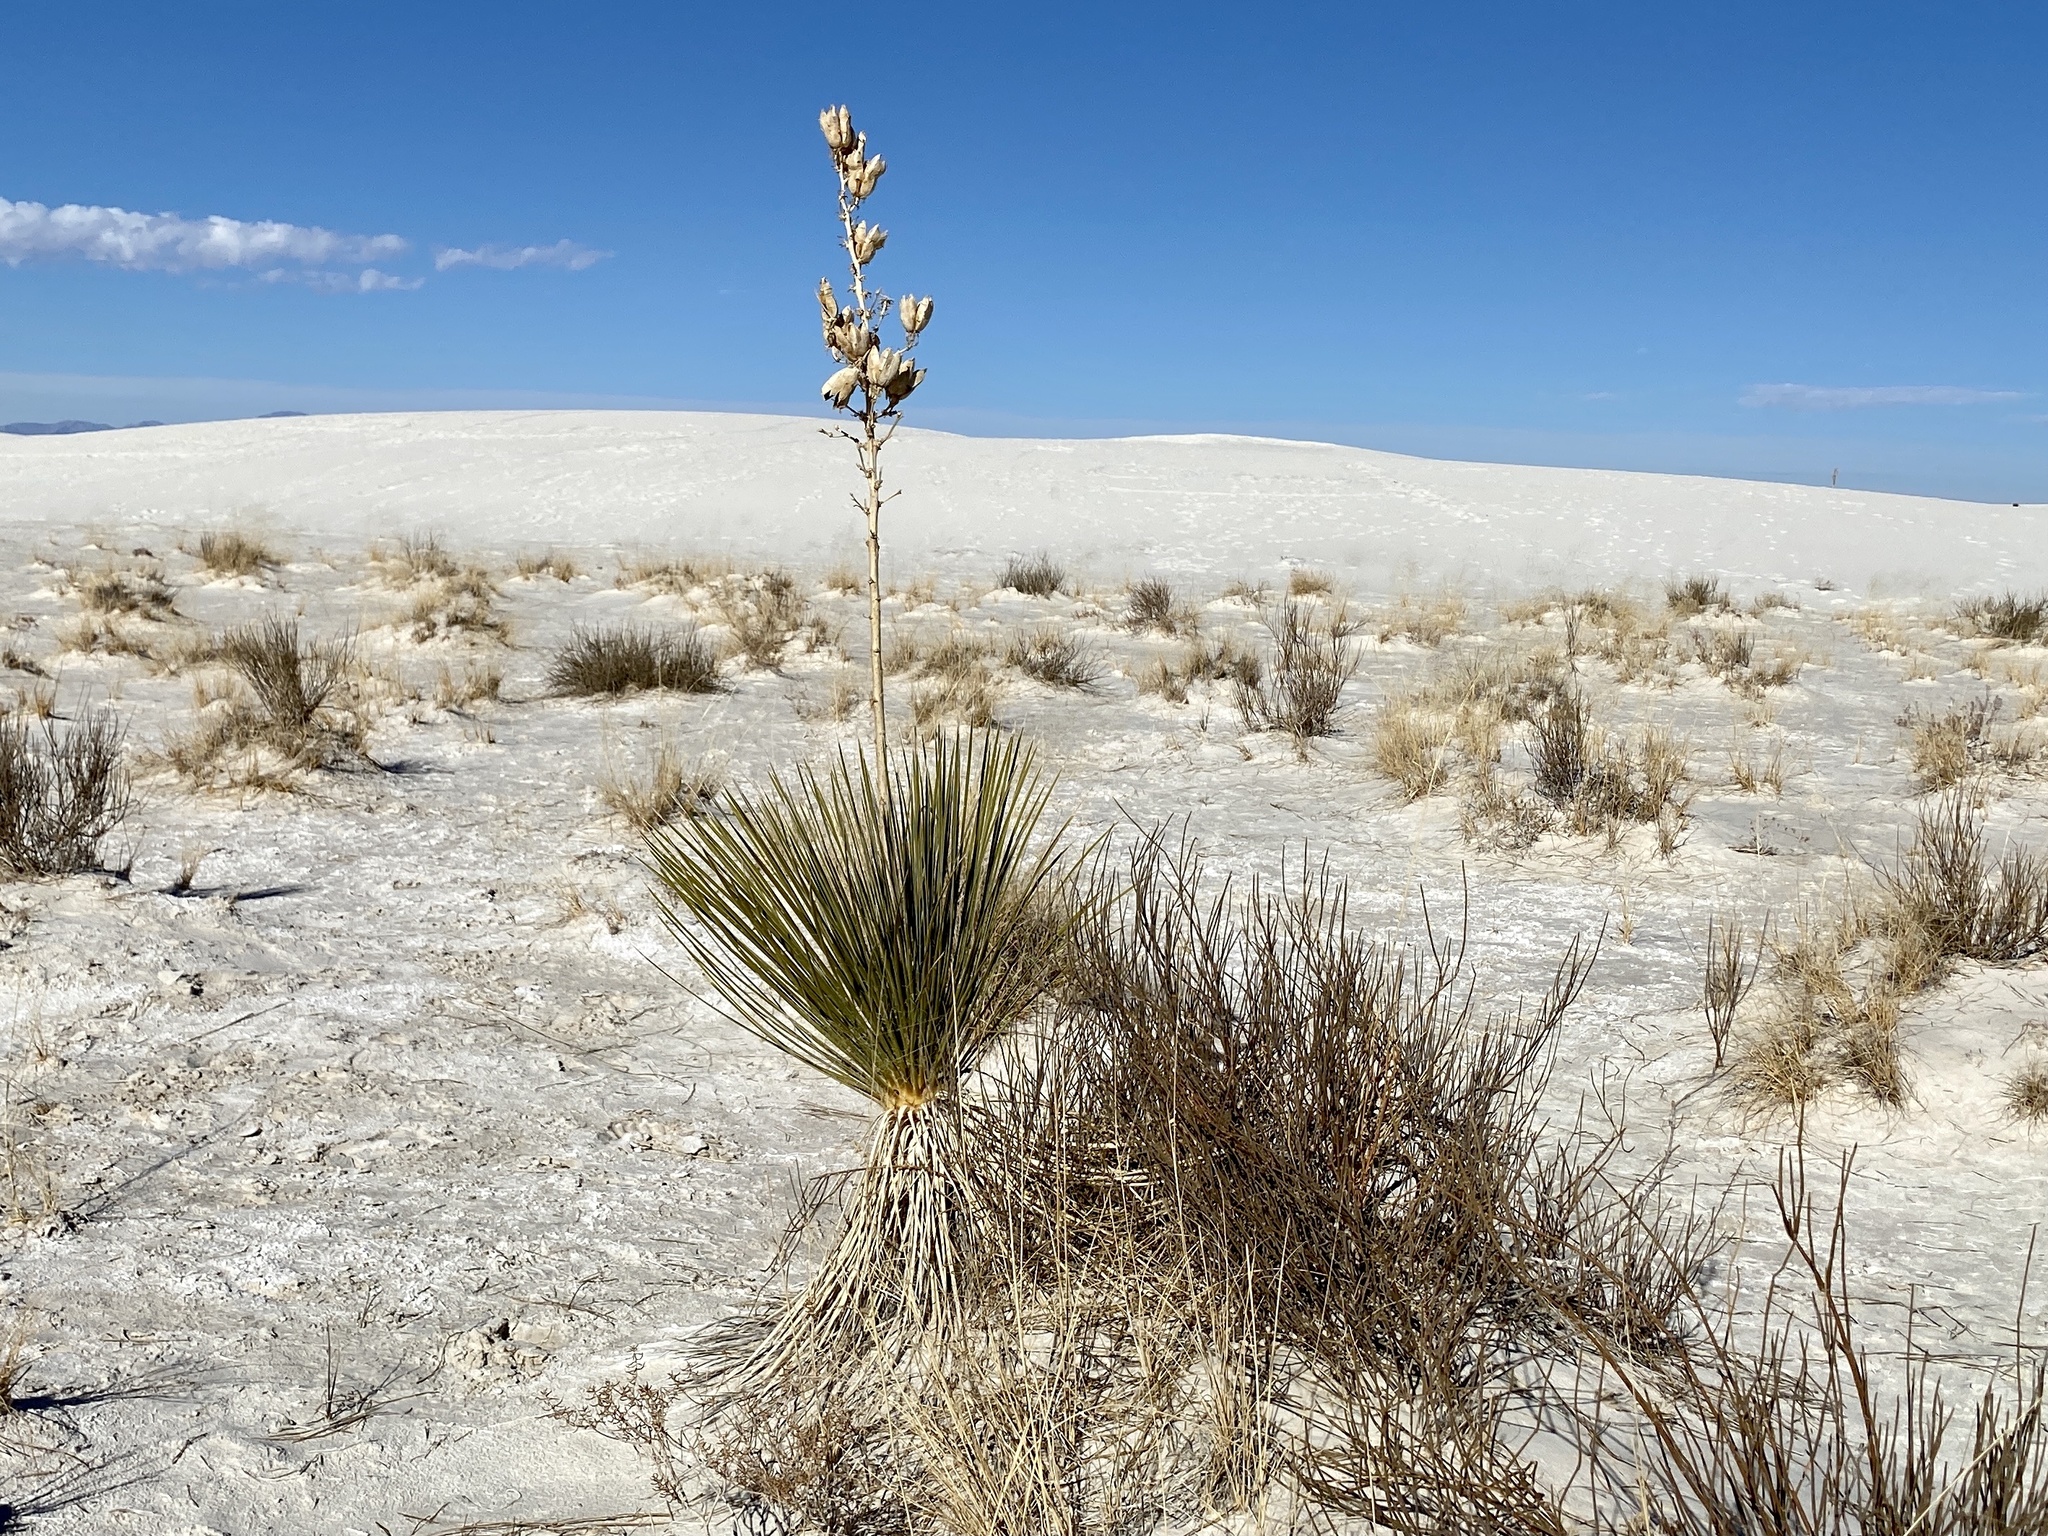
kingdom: Plantae
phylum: Tracheophyta
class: Liliopsida
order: Asparagales
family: Asparagaceae
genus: Yucca
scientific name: Yucca elata
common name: Palmella
